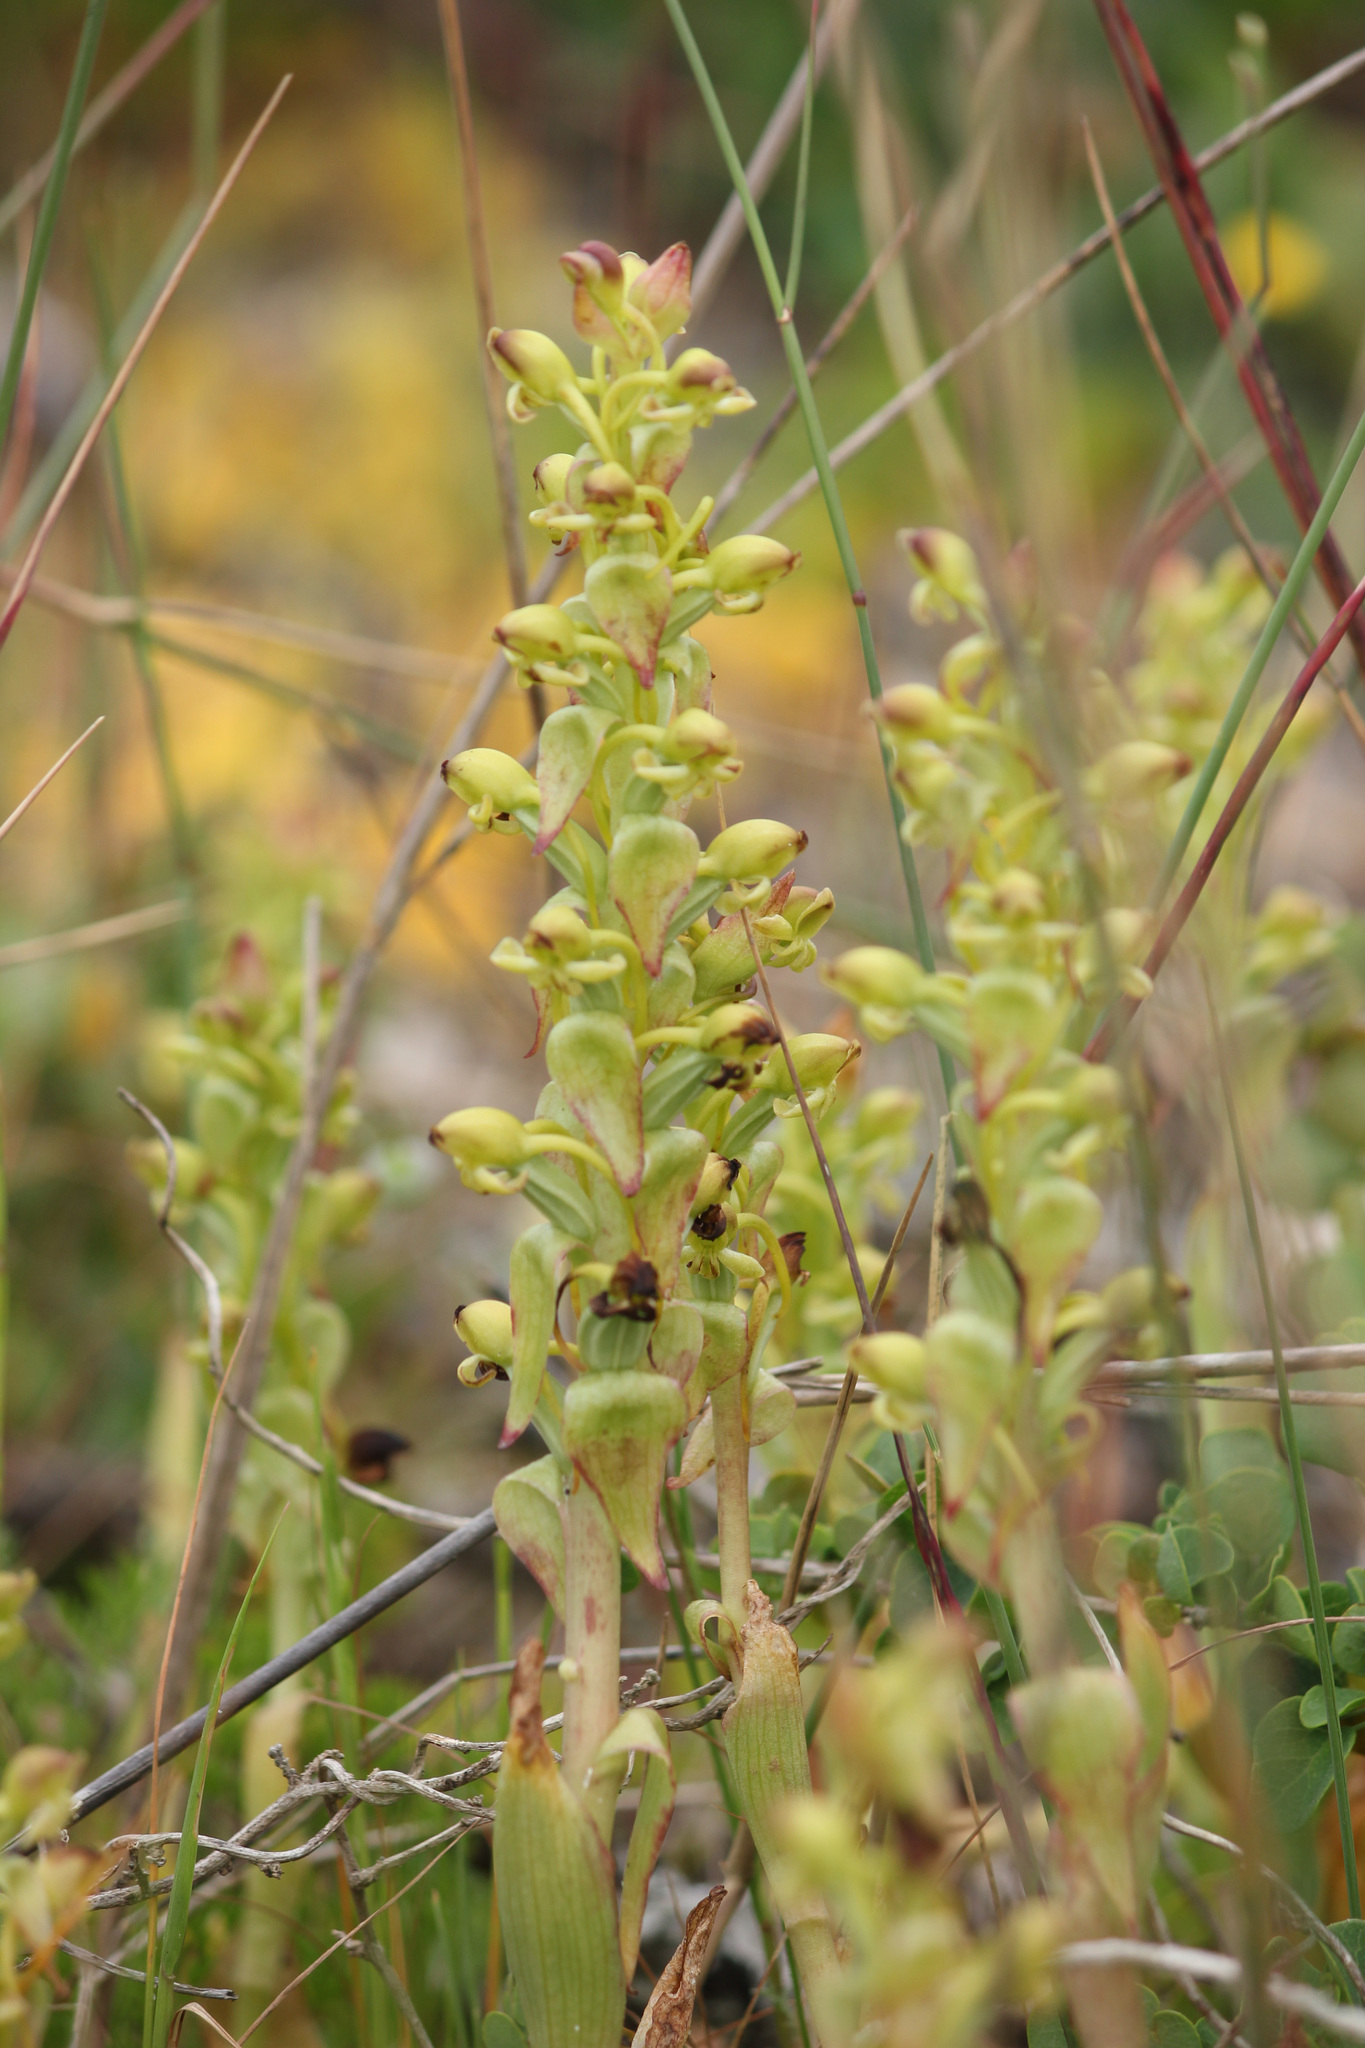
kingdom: Plantae
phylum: Tracheophyta
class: Liliopsida
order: Asparagales
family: Orchidaceae
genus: Satyrium
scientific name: Satyrium odorum
